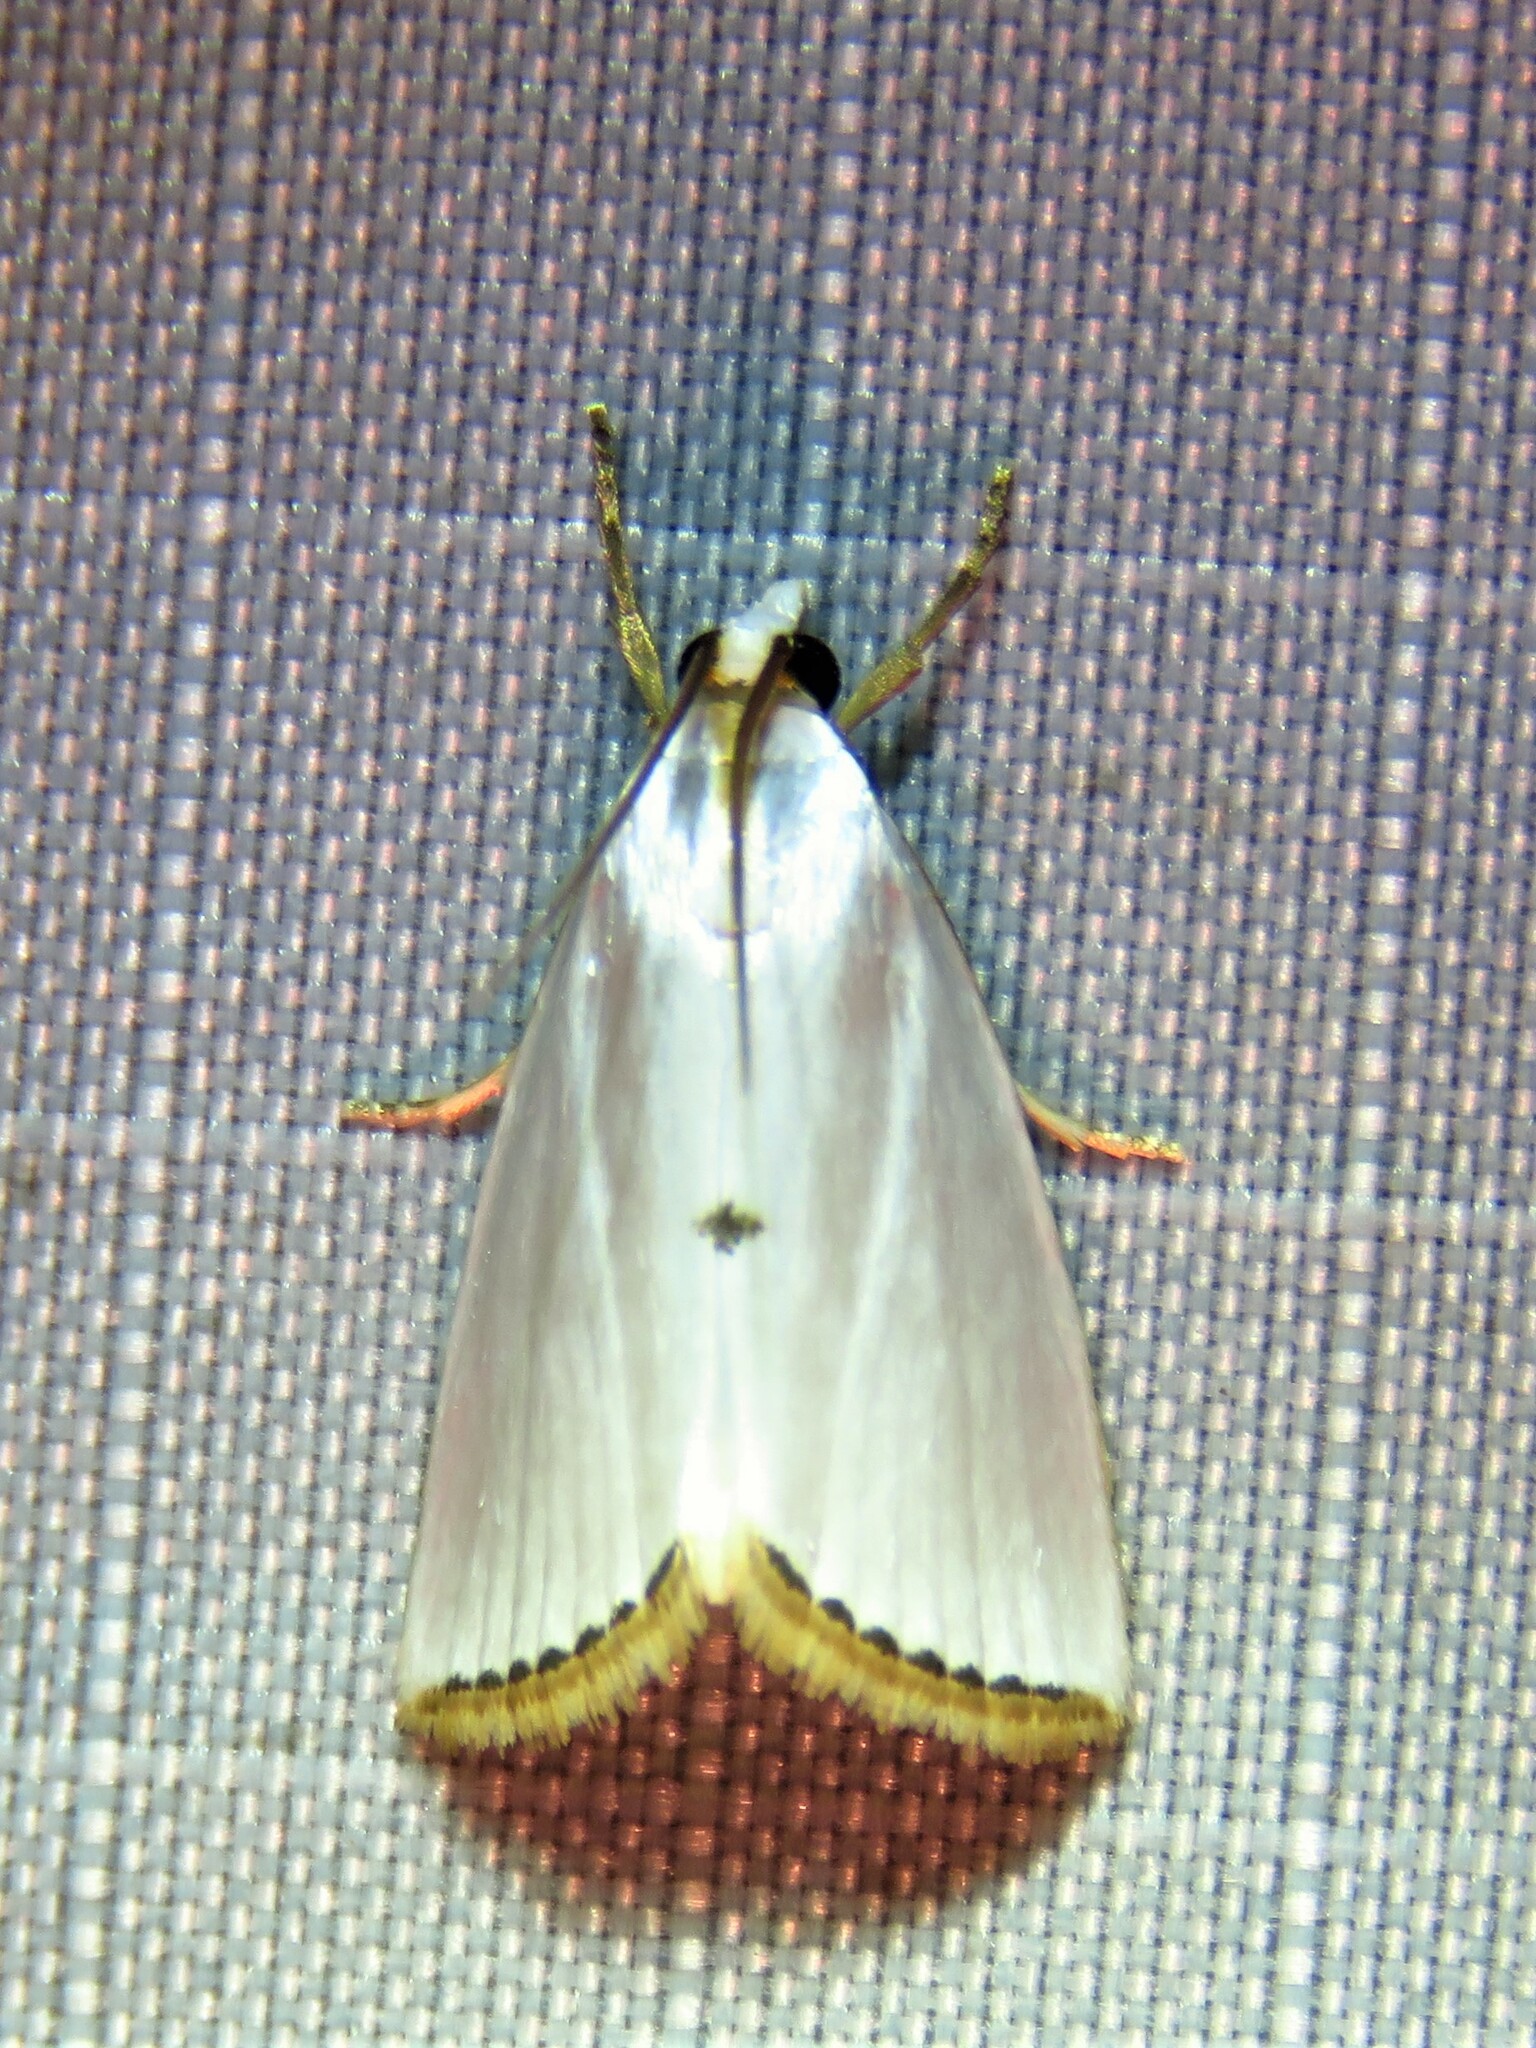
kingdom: Animalia
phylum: Arthropoda
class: Insecta
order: Lepidoptera
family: Crambidae
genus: Argyria
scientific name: Argyria nivalis
